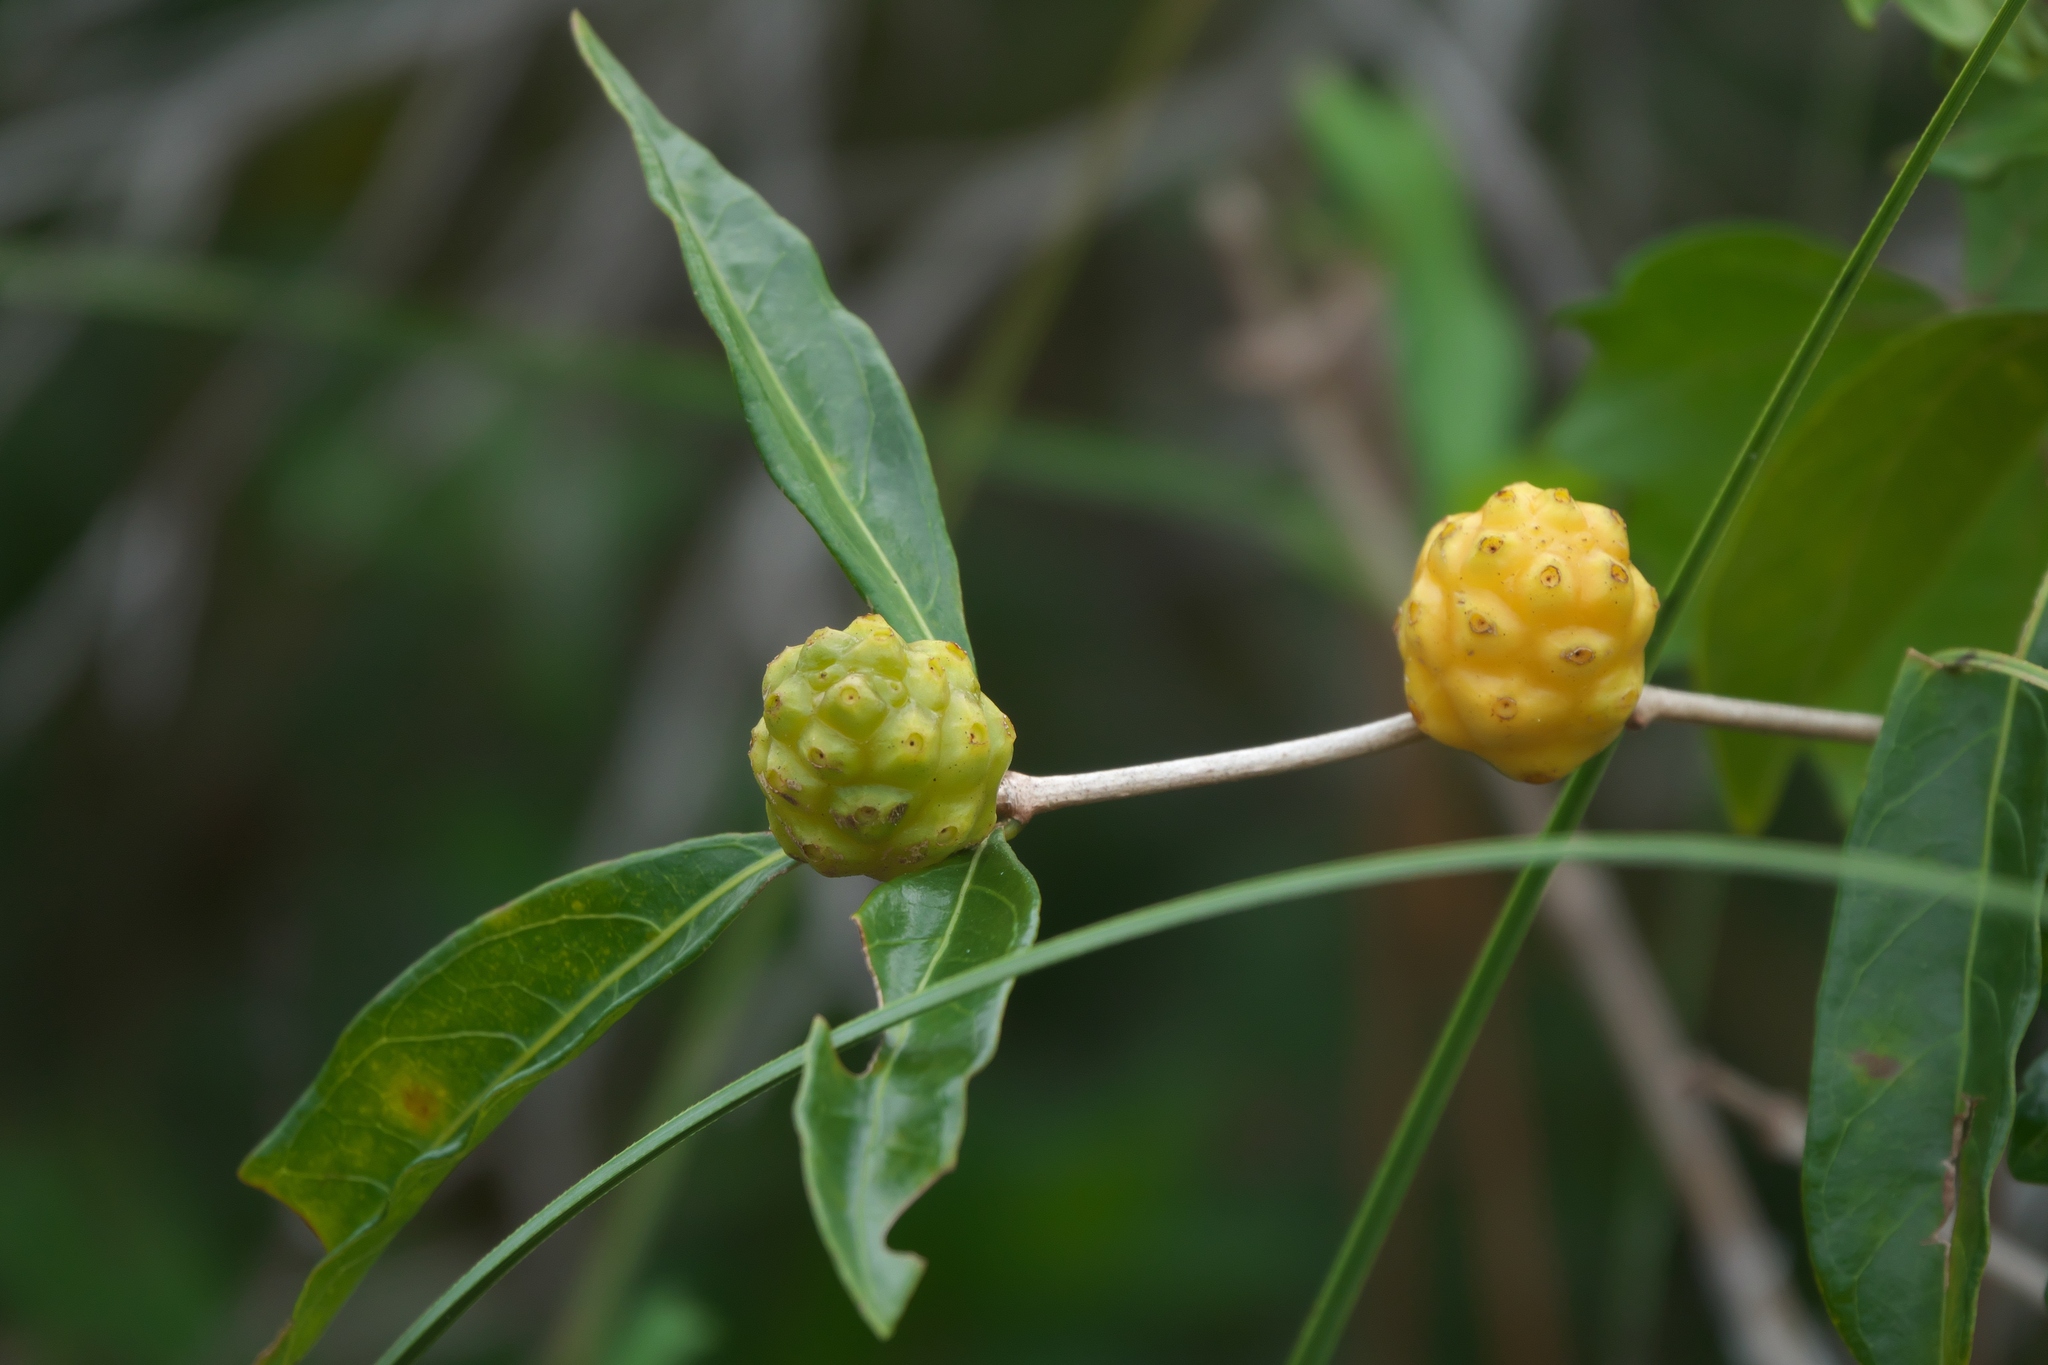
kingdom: Plantae
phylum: Tracheophyta
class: Magnoliopsida
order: Gentianales
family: Rubiaceae
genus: Morinda
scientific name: Morinda royoc
